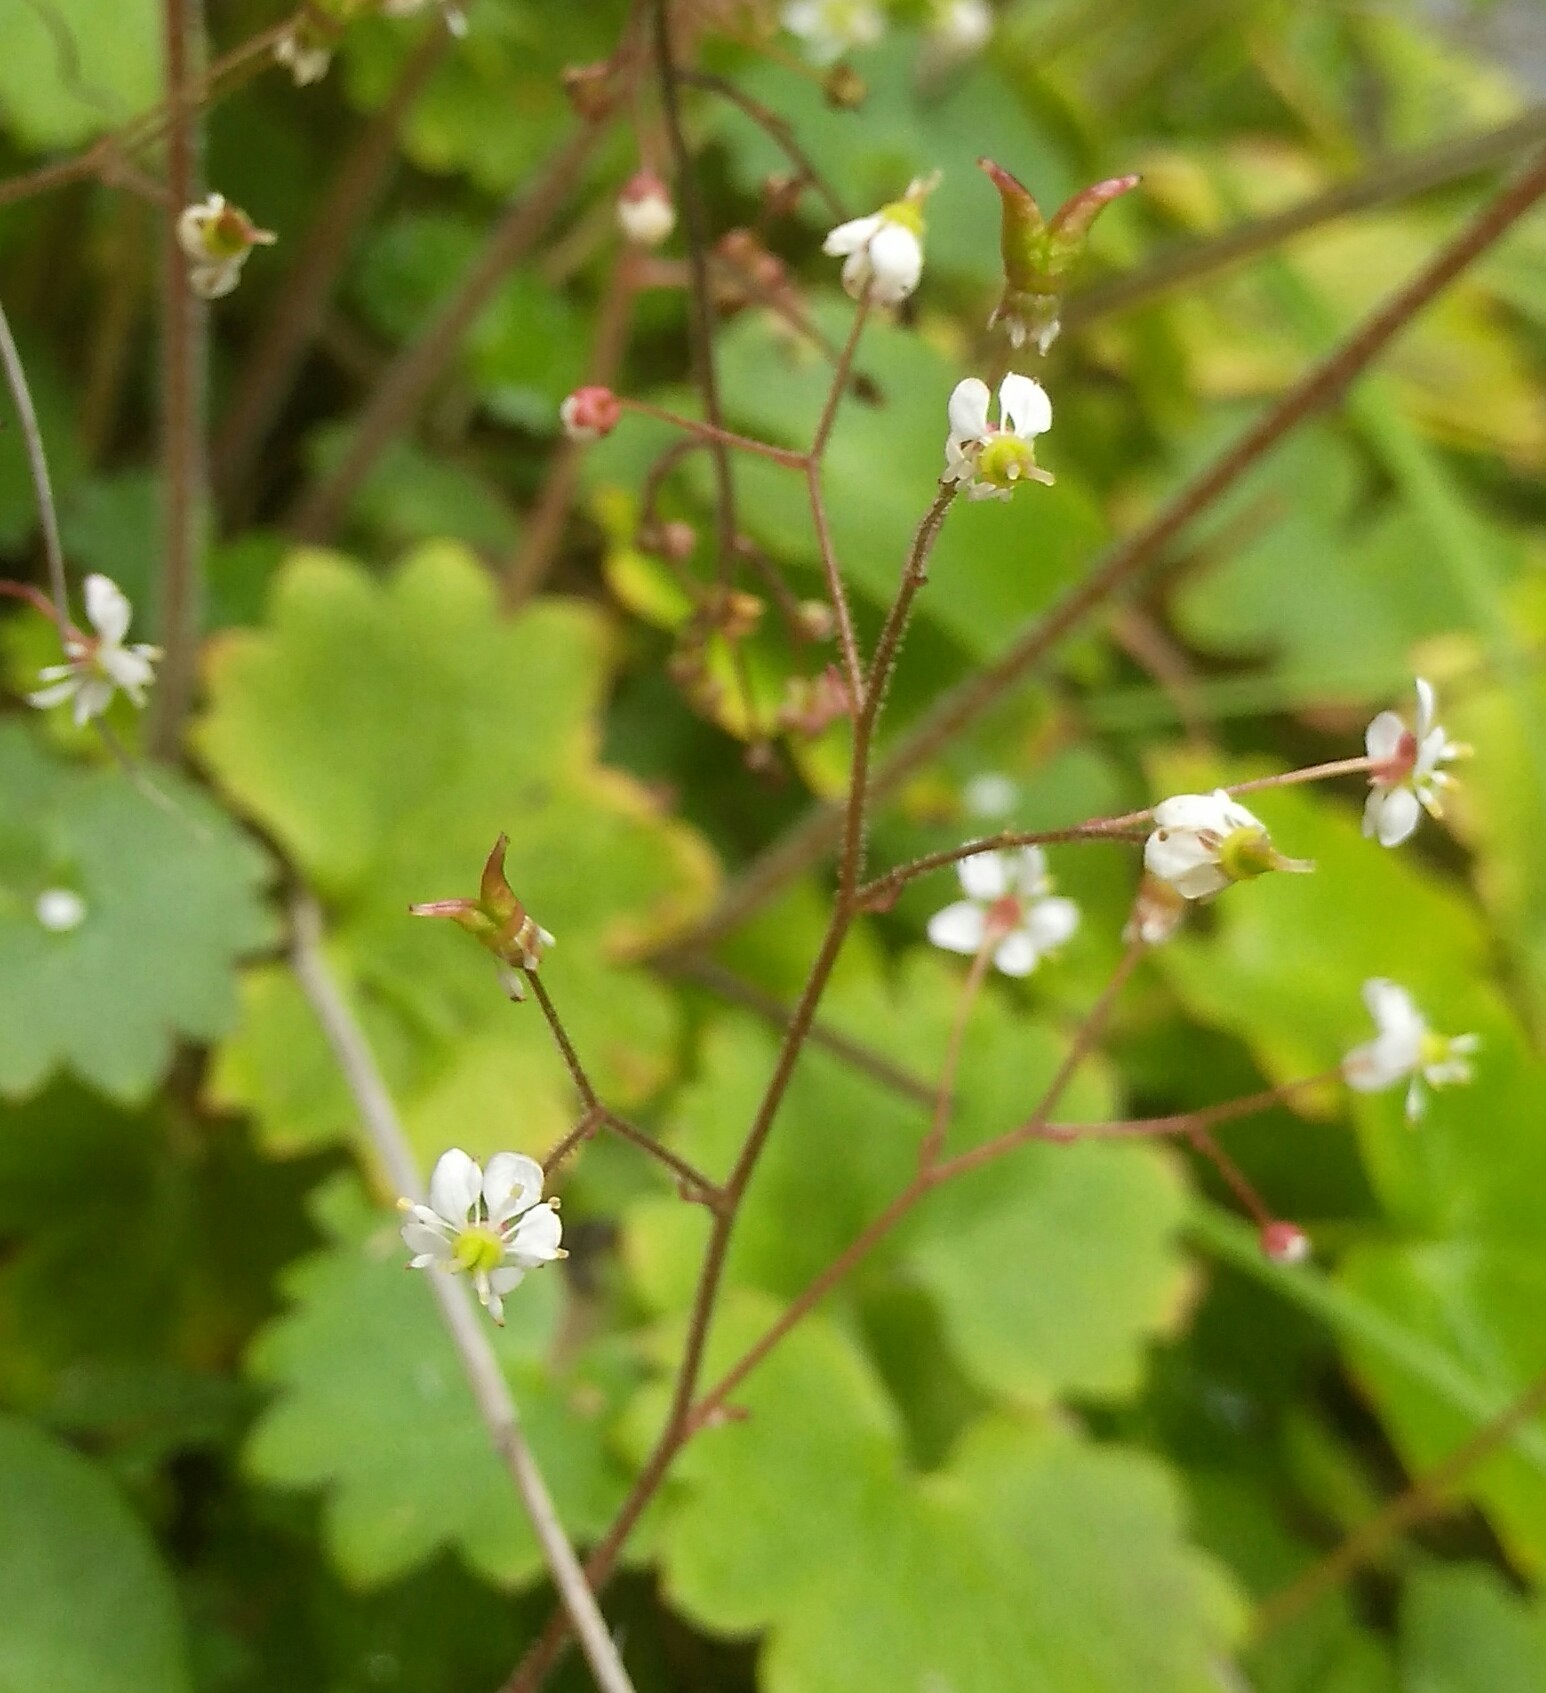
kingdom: Plantae
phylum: Tracheophyta
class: Magnoliopsida
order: Saxifragales
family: Saxifragaceae
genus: Micranthes
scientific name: Micranthes nelsoniana
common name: Nelson's saxifrage
